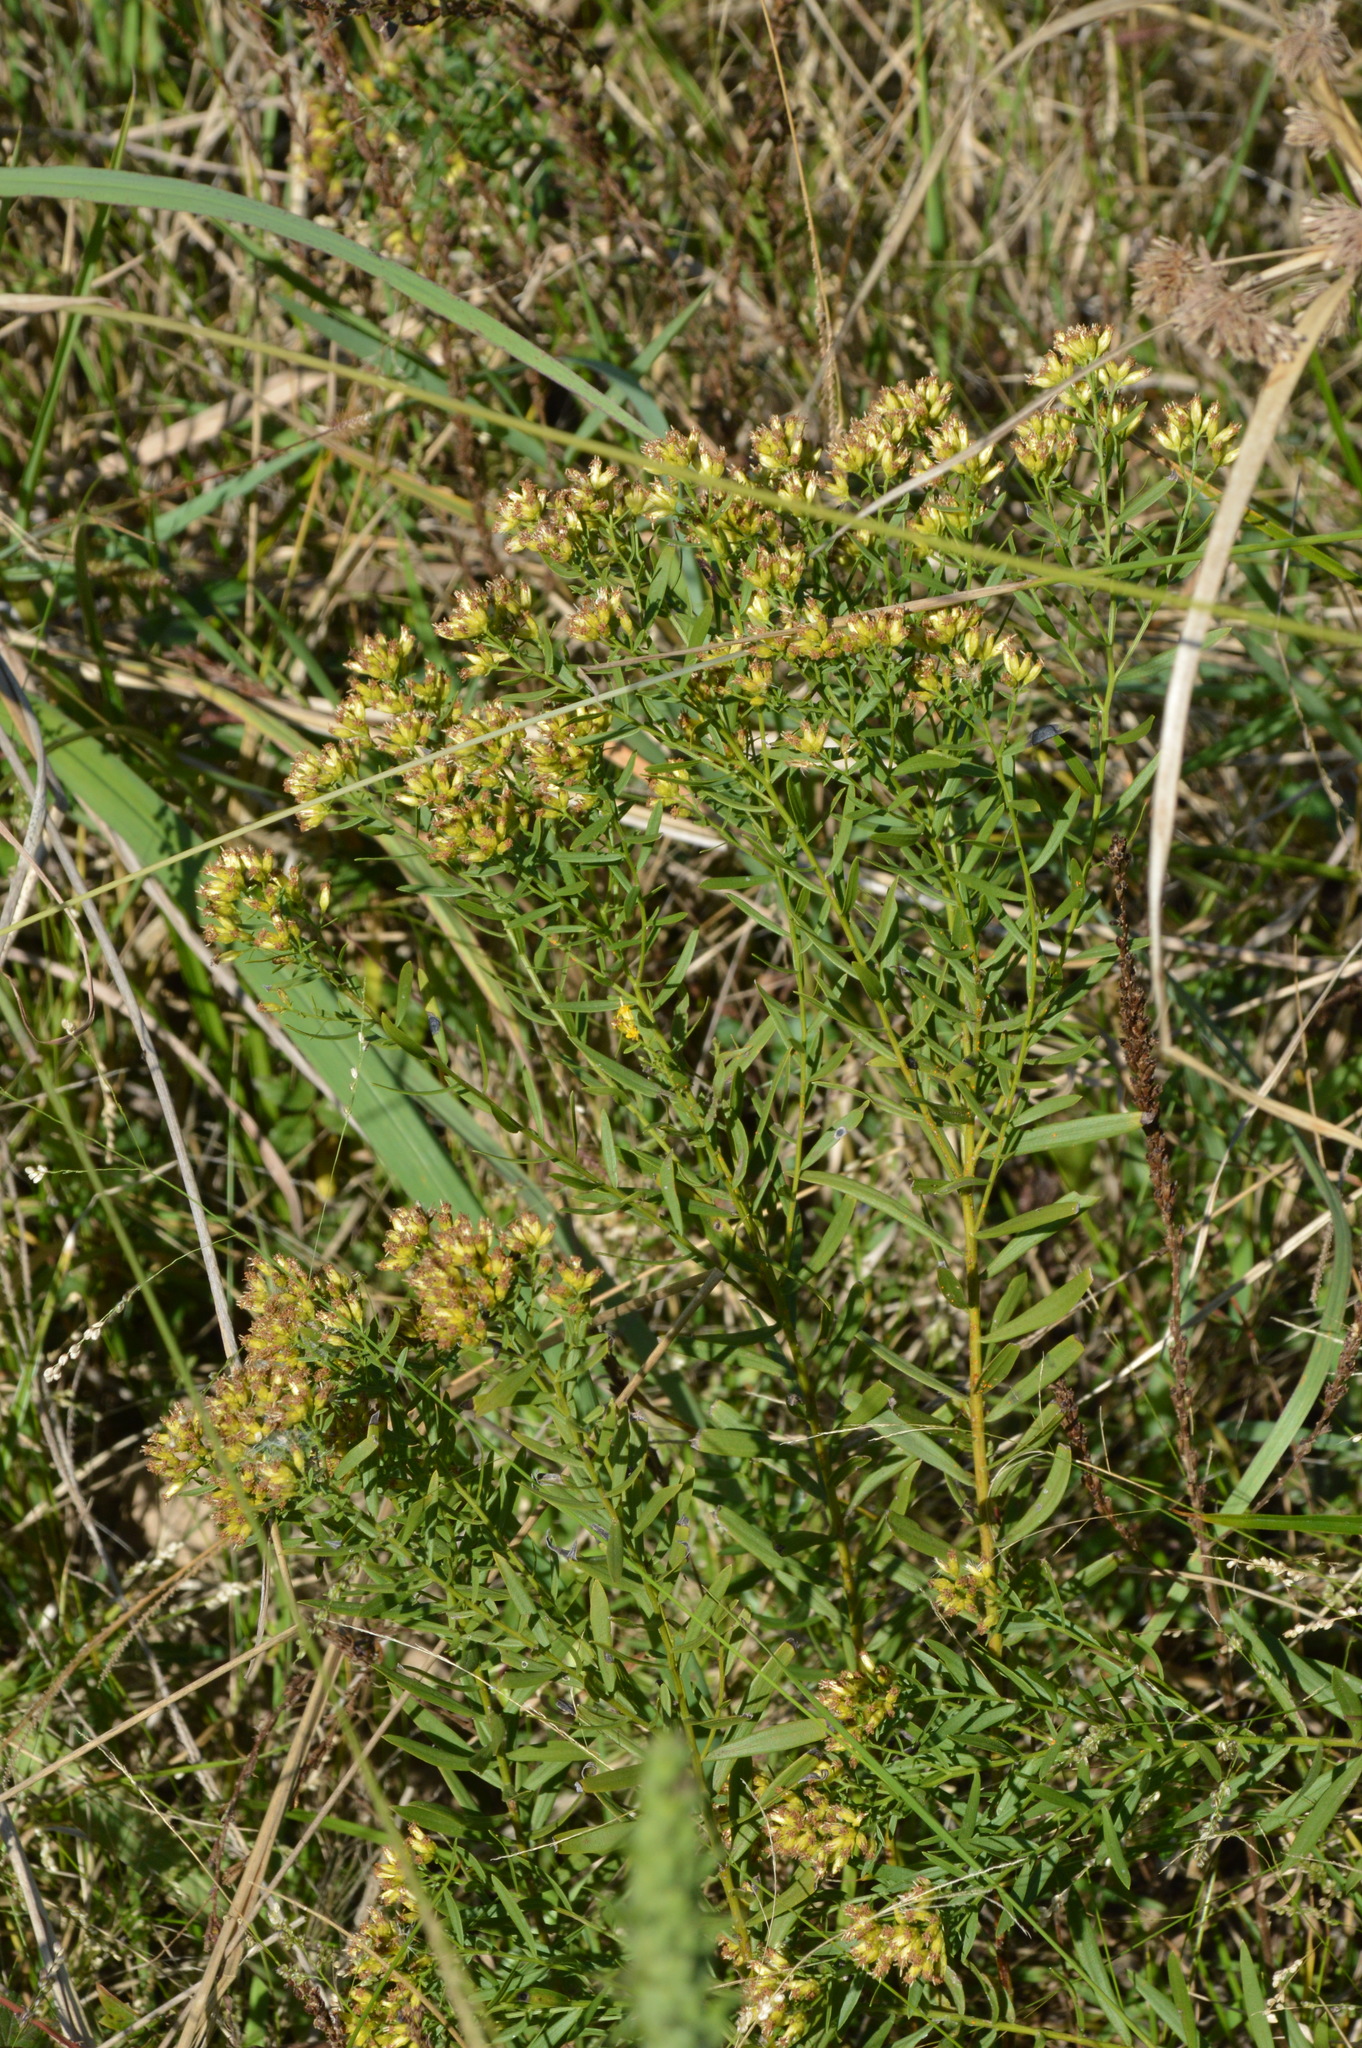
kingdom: Plantae
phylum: Tracheophyta
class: Magnoliopsida
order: Asterales
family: Asteraceae
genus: Euthamia
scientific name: Euthamia leptocephala
